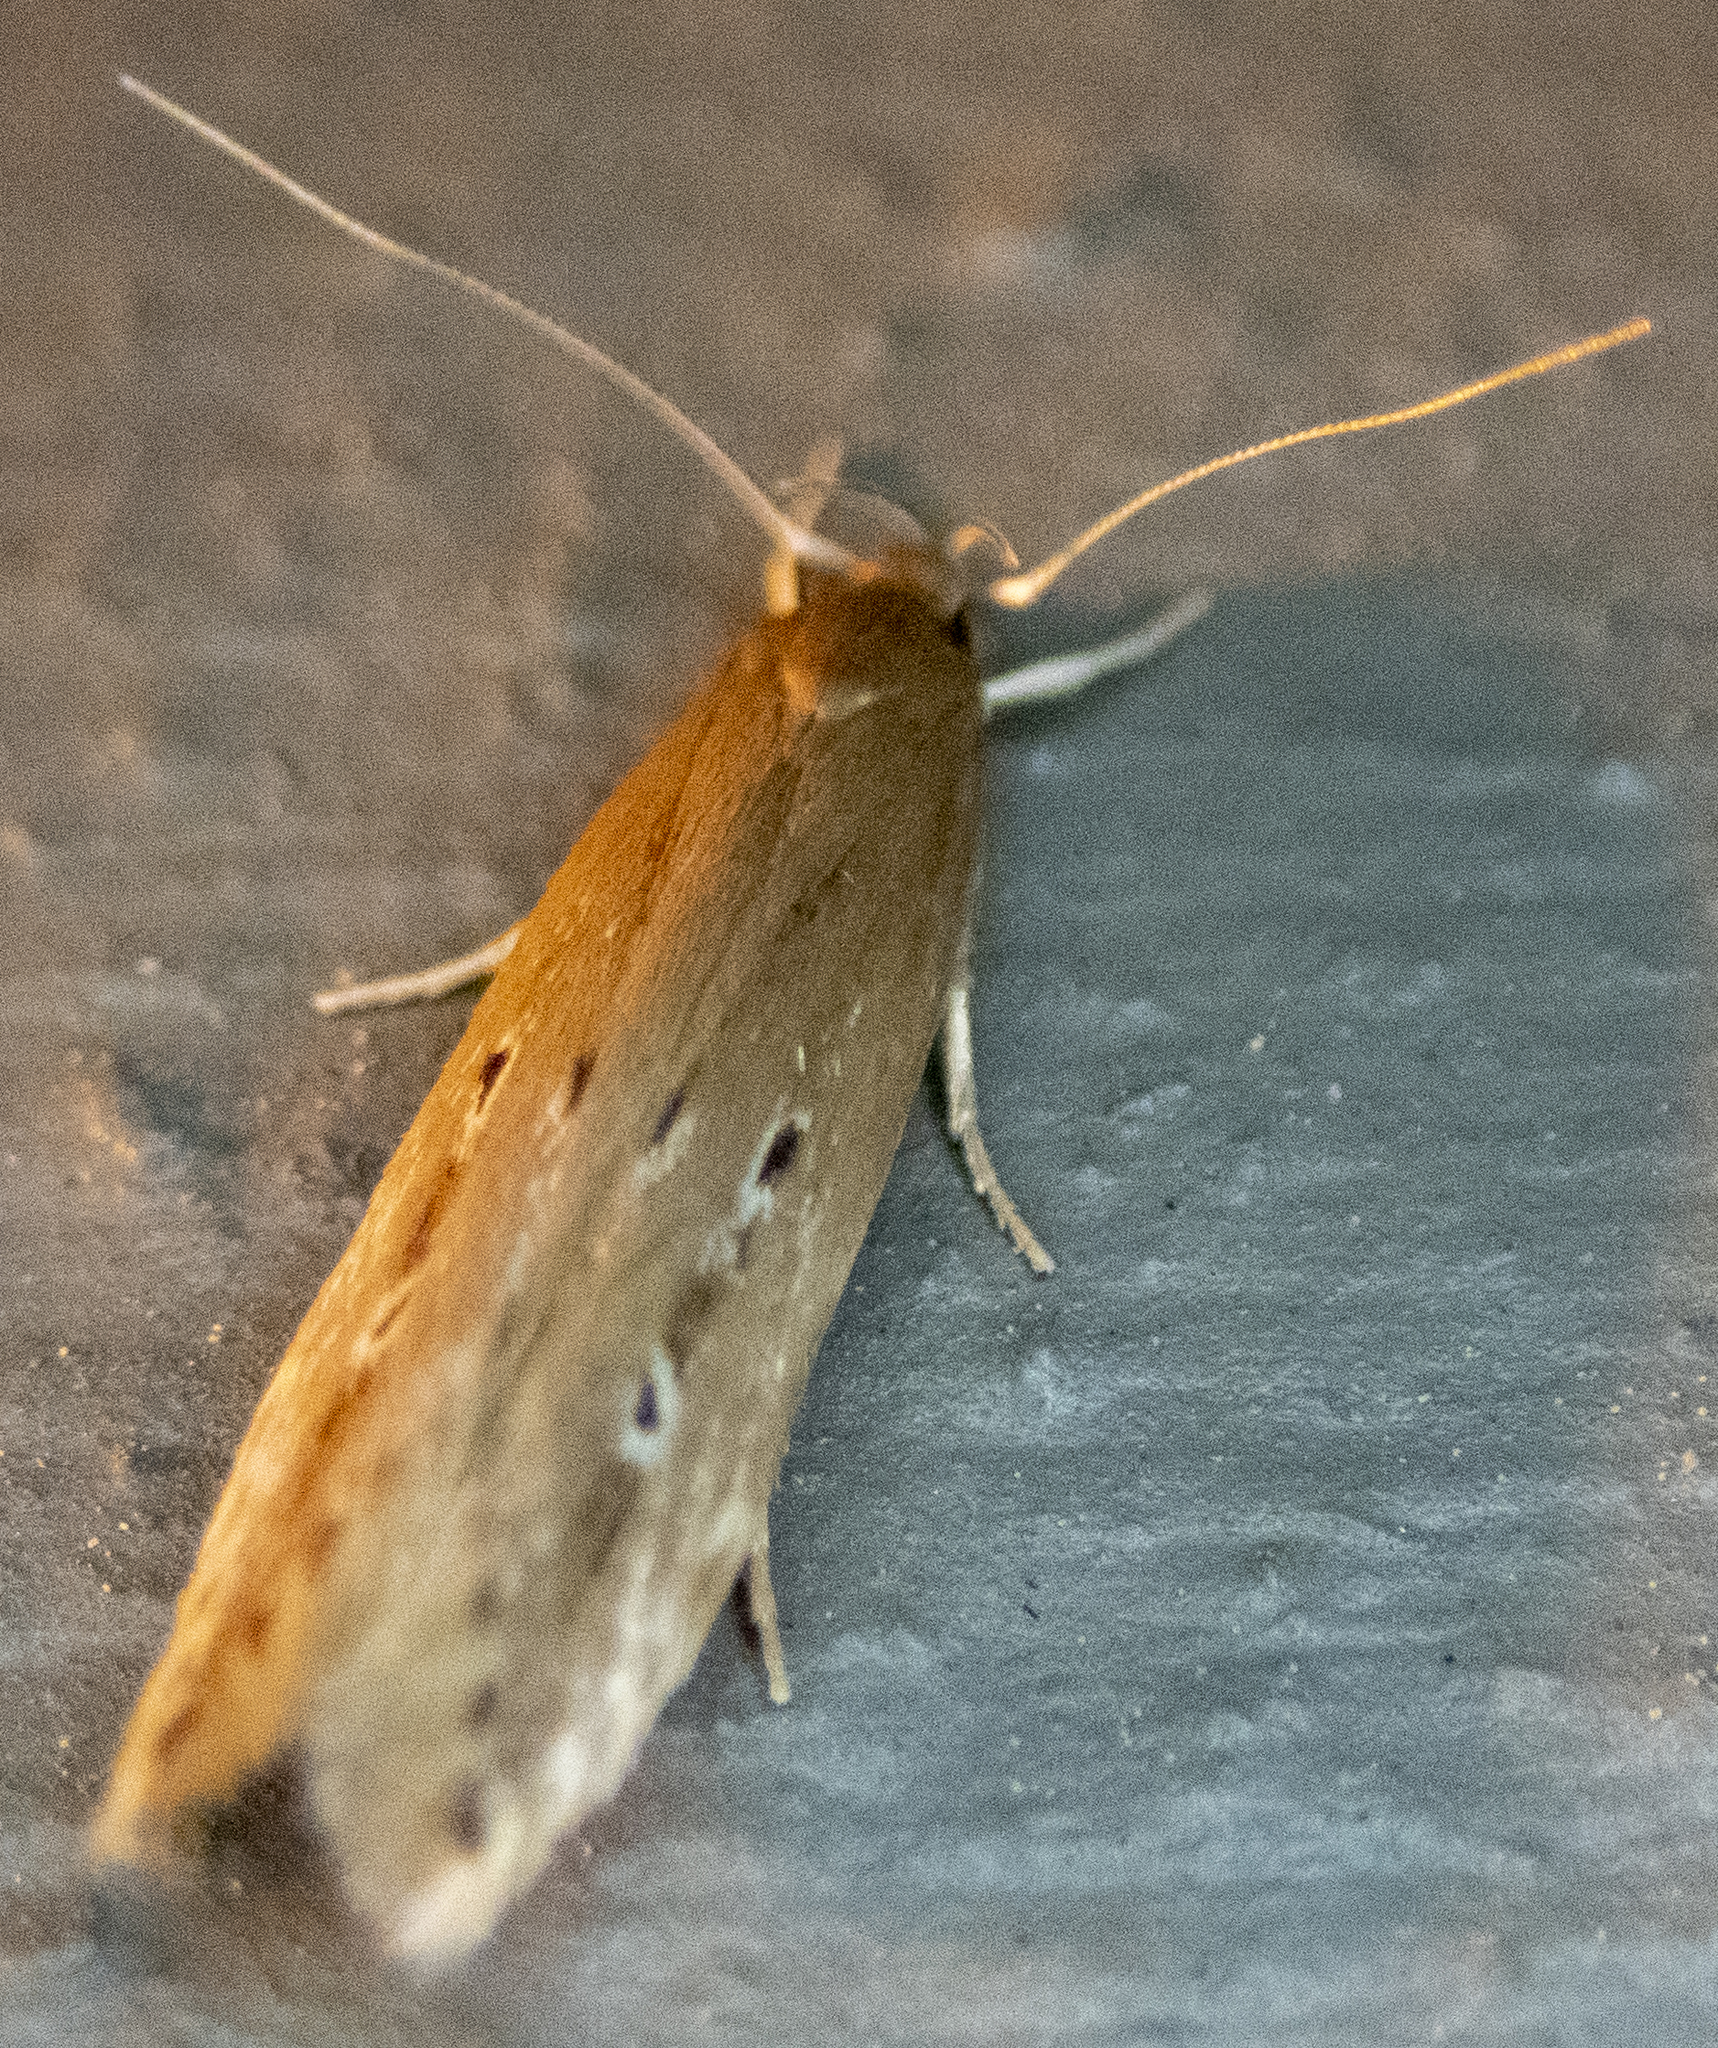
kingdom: Animalia
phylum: Arthropoda
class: Insecta
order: Lepidoptera
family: Cosmopterigidae
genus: Limnaecia
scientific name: Limnaecia phragmitella
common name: Bulrush cosmet
